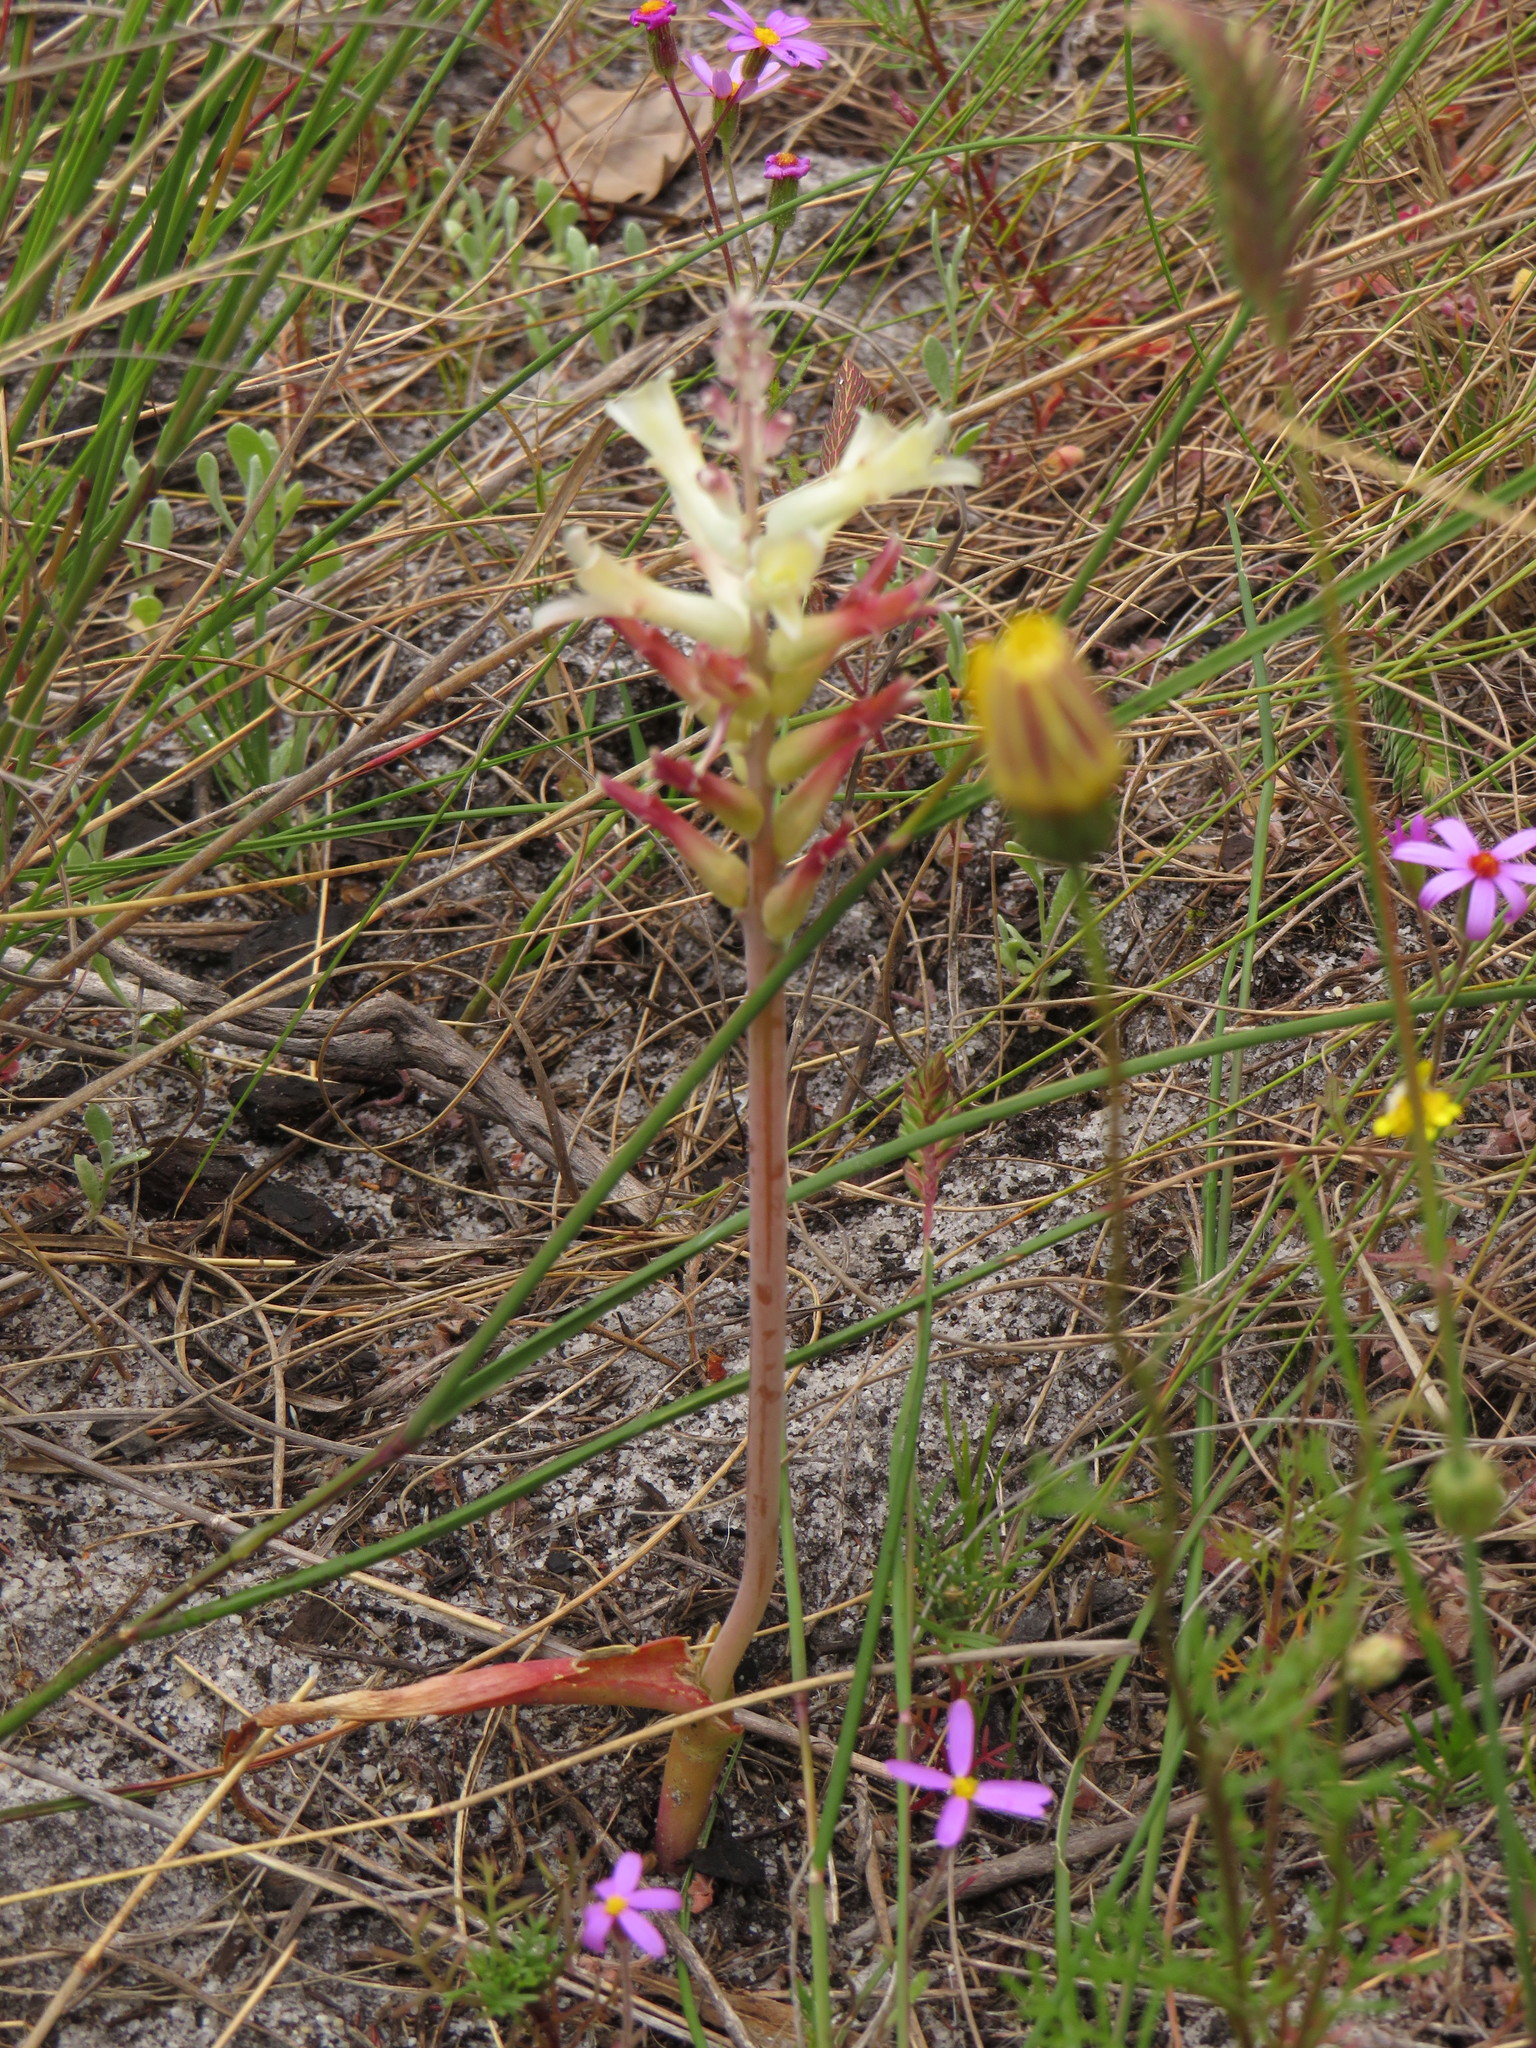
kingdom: Plantae
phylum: Tracheophyta
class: Liliopsida
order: Asparagales
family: Asparagaceae
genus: Lachenalia
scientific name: Lachenalia orchioides
